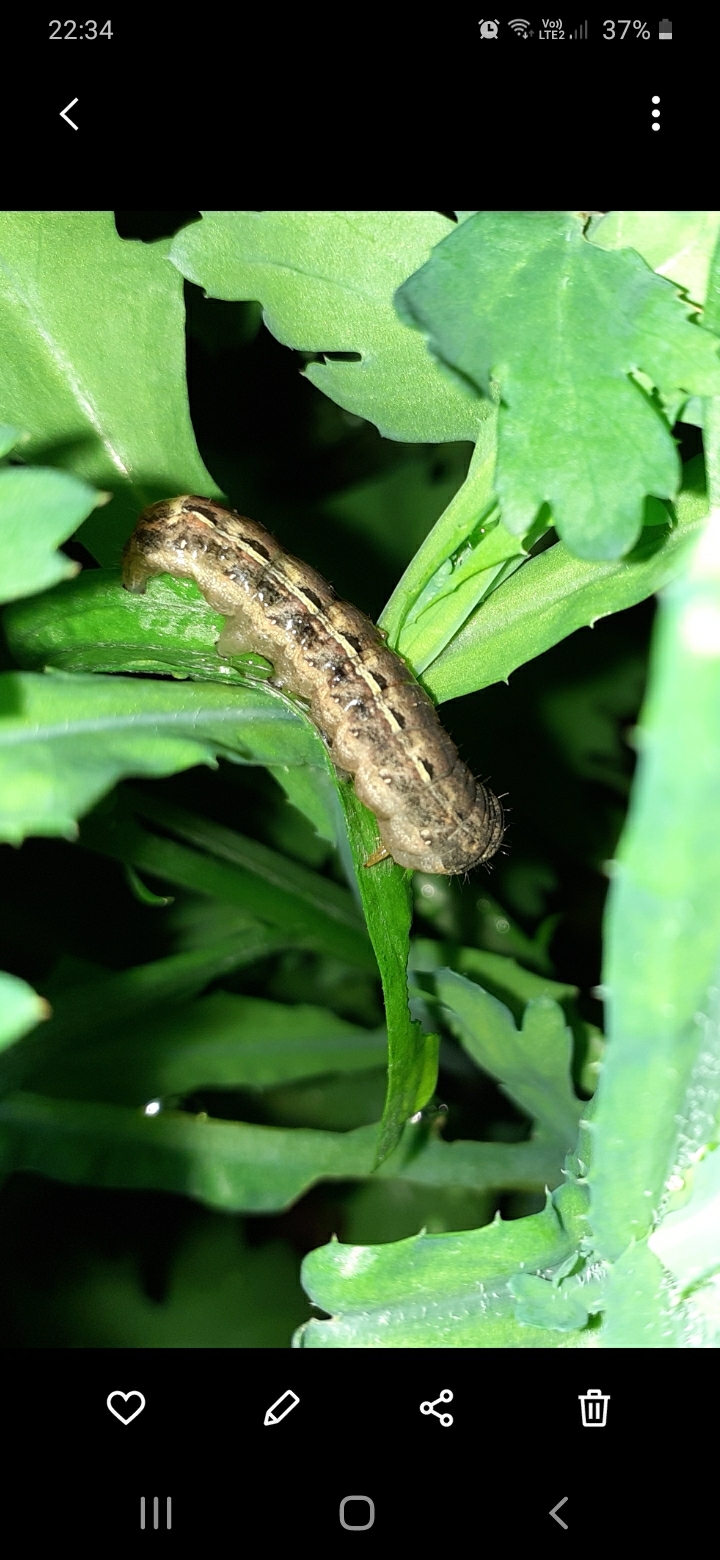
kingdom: Animalia
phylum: Arthropoda
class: Insecta
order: Lepidoptera
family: Noctuidae
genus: Noctua
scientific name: Noctua pronuba
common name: Large yellow underwing
